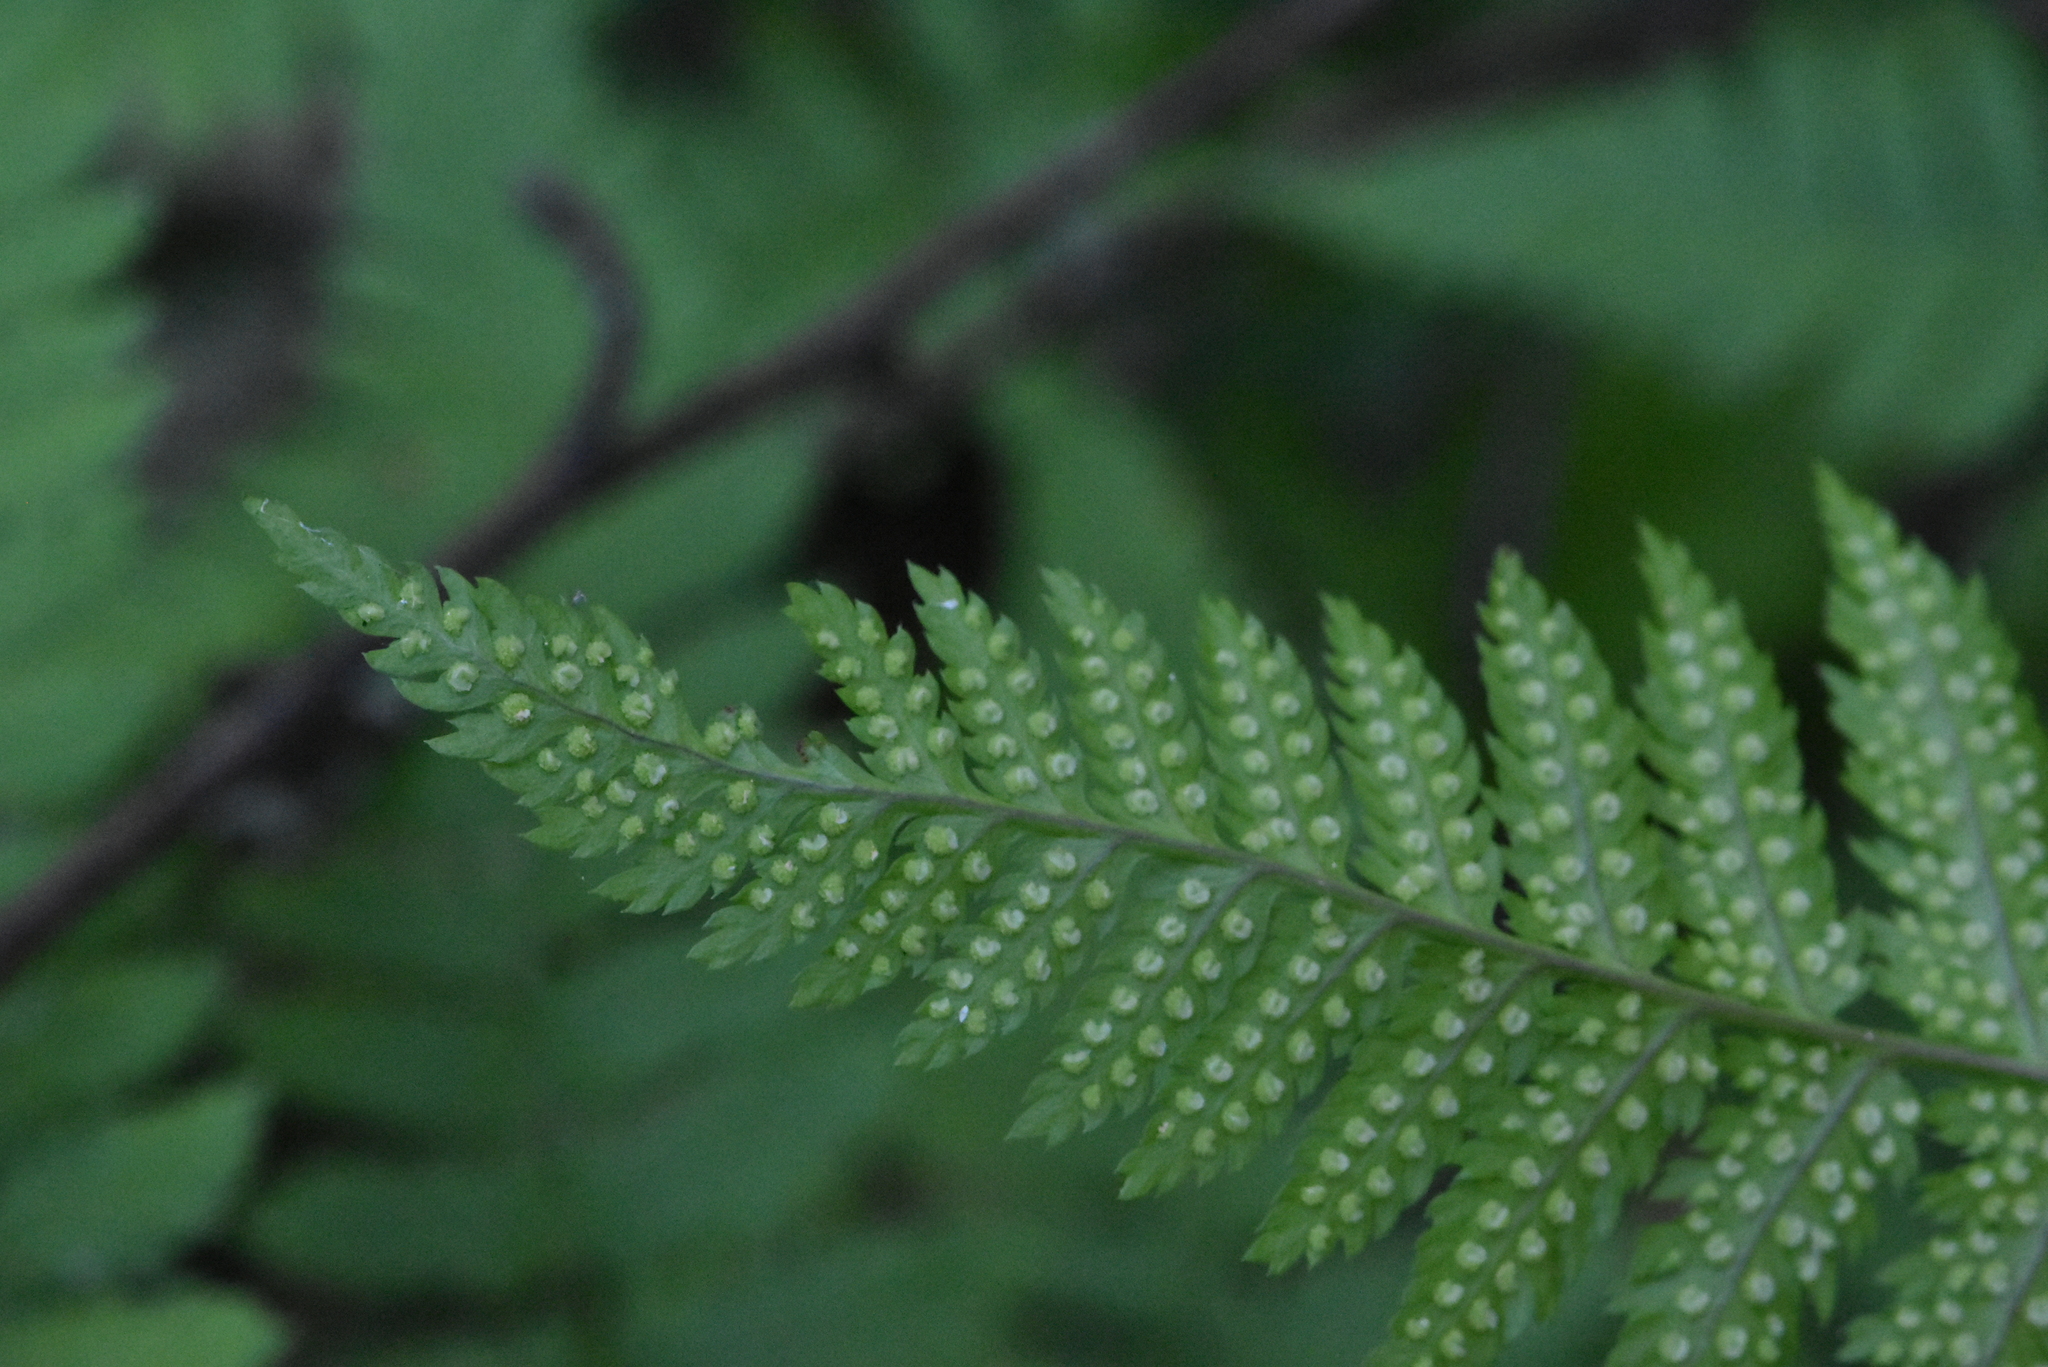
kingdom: Plantae
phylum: Tracheophyta
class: Polypodiopsida
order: Polypodiales
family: Dryopteridaceae
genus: Dryopteris
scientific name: Dryopteris carthusiana
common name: Narrow buckler-fern
